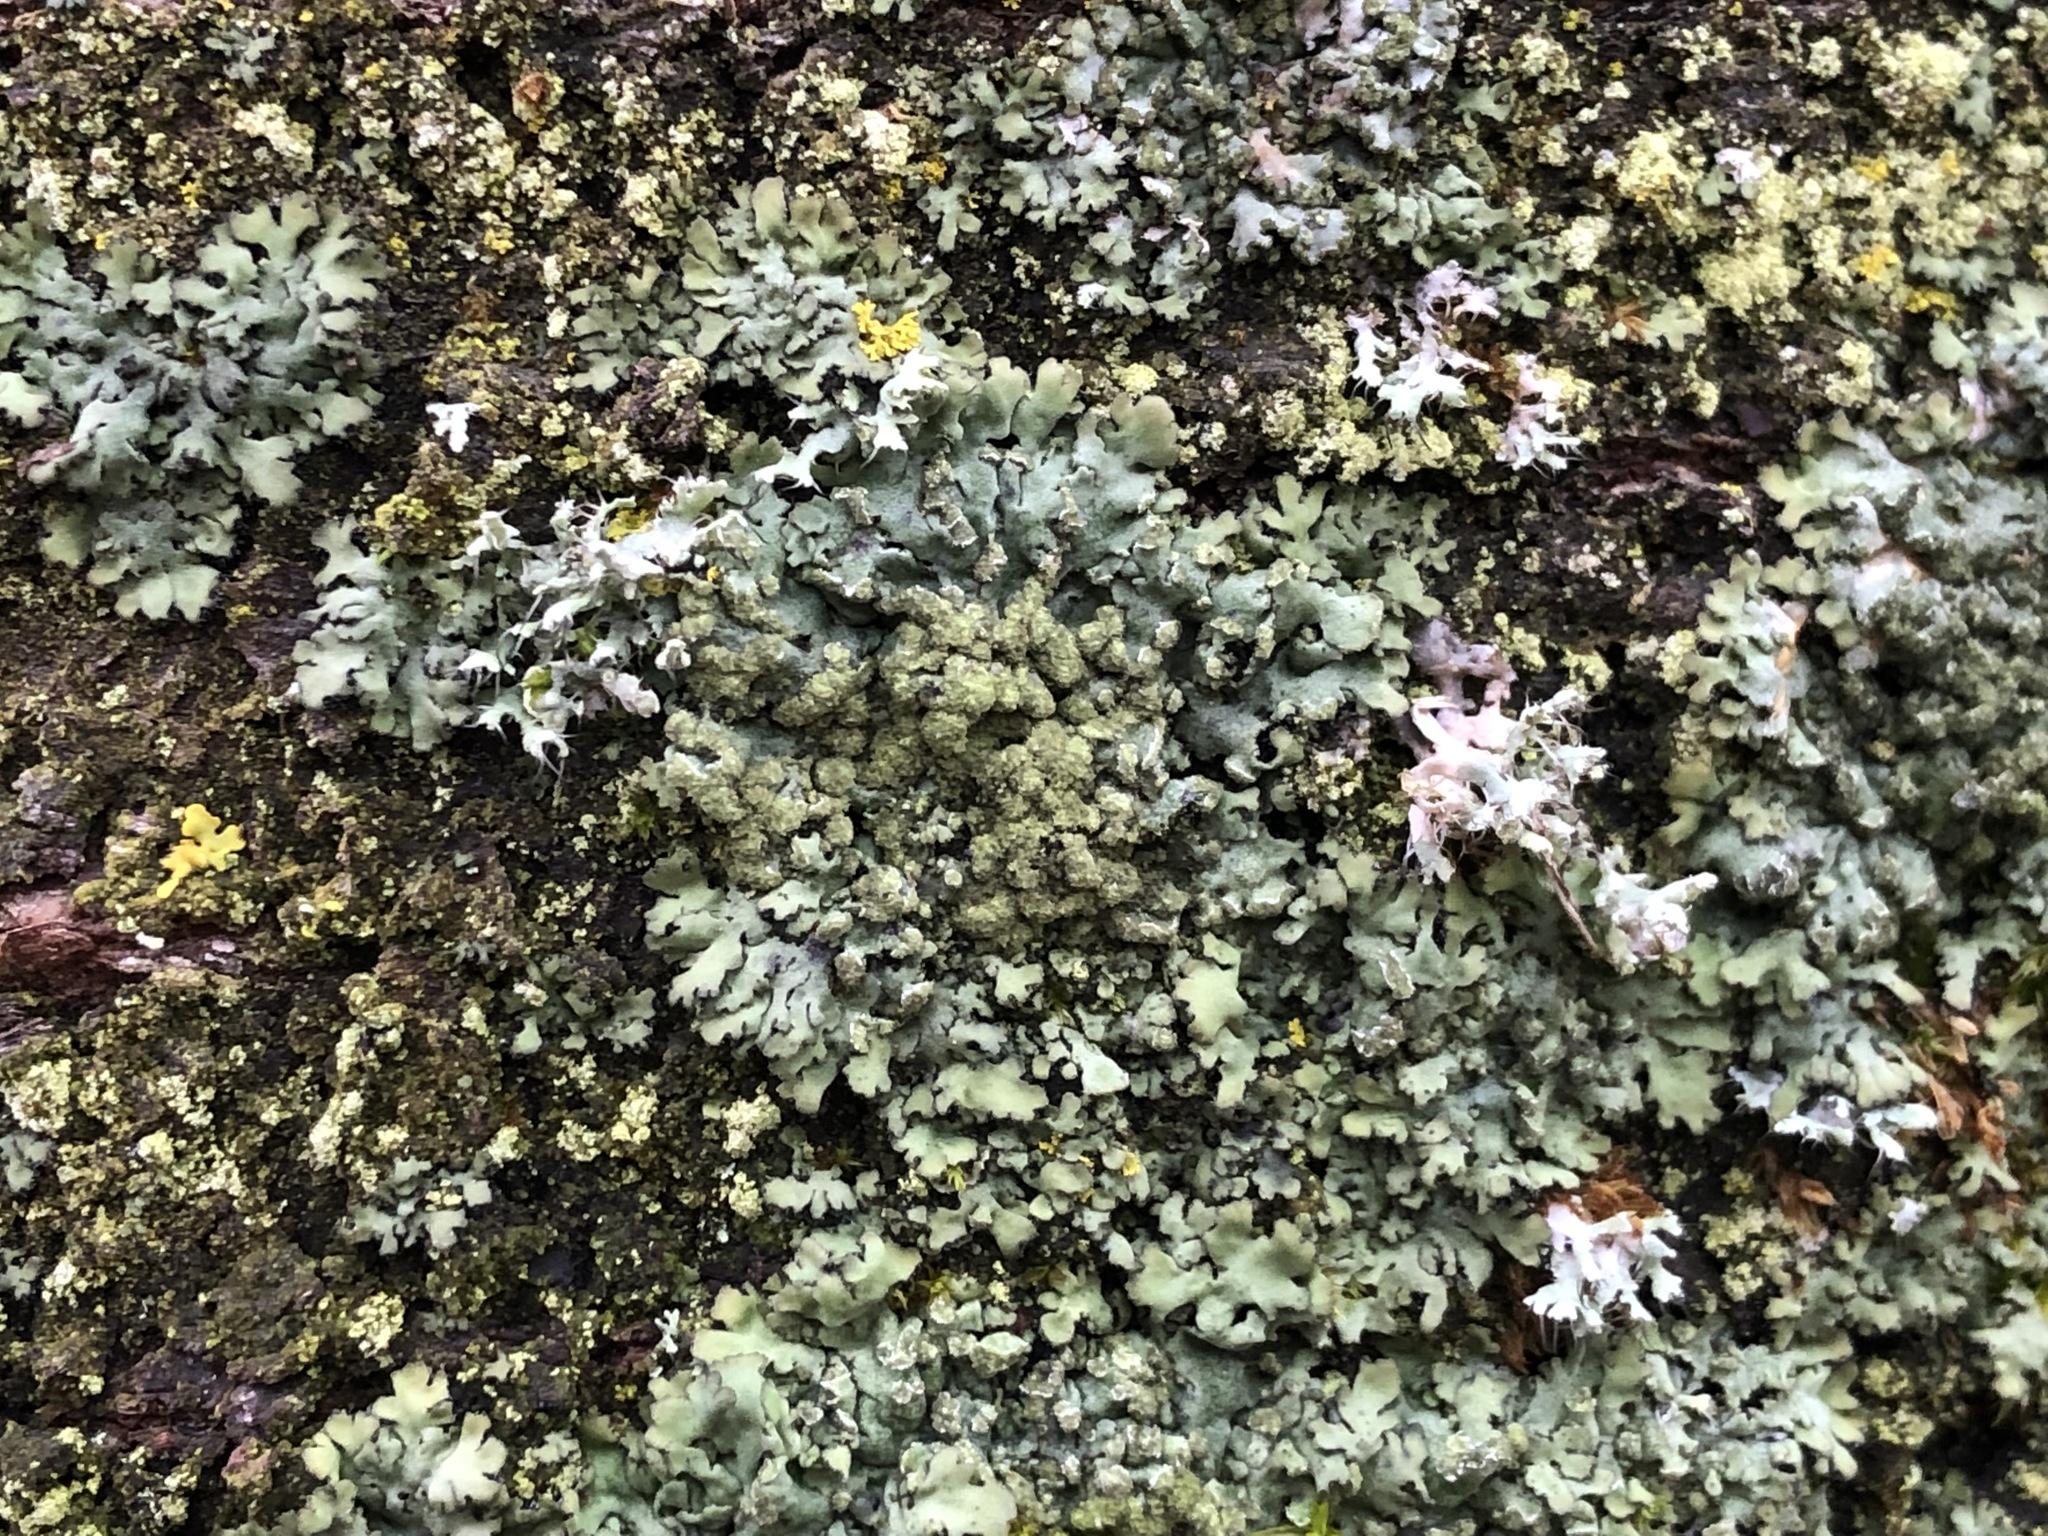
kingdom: Fungi
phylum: Ascomycota
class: Lecanoromycetes
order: Caliciales
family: Physciaceae
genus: Phaeophyscia
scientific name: Phaeophyscia orbicularis
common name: Mealy shadow lichen
